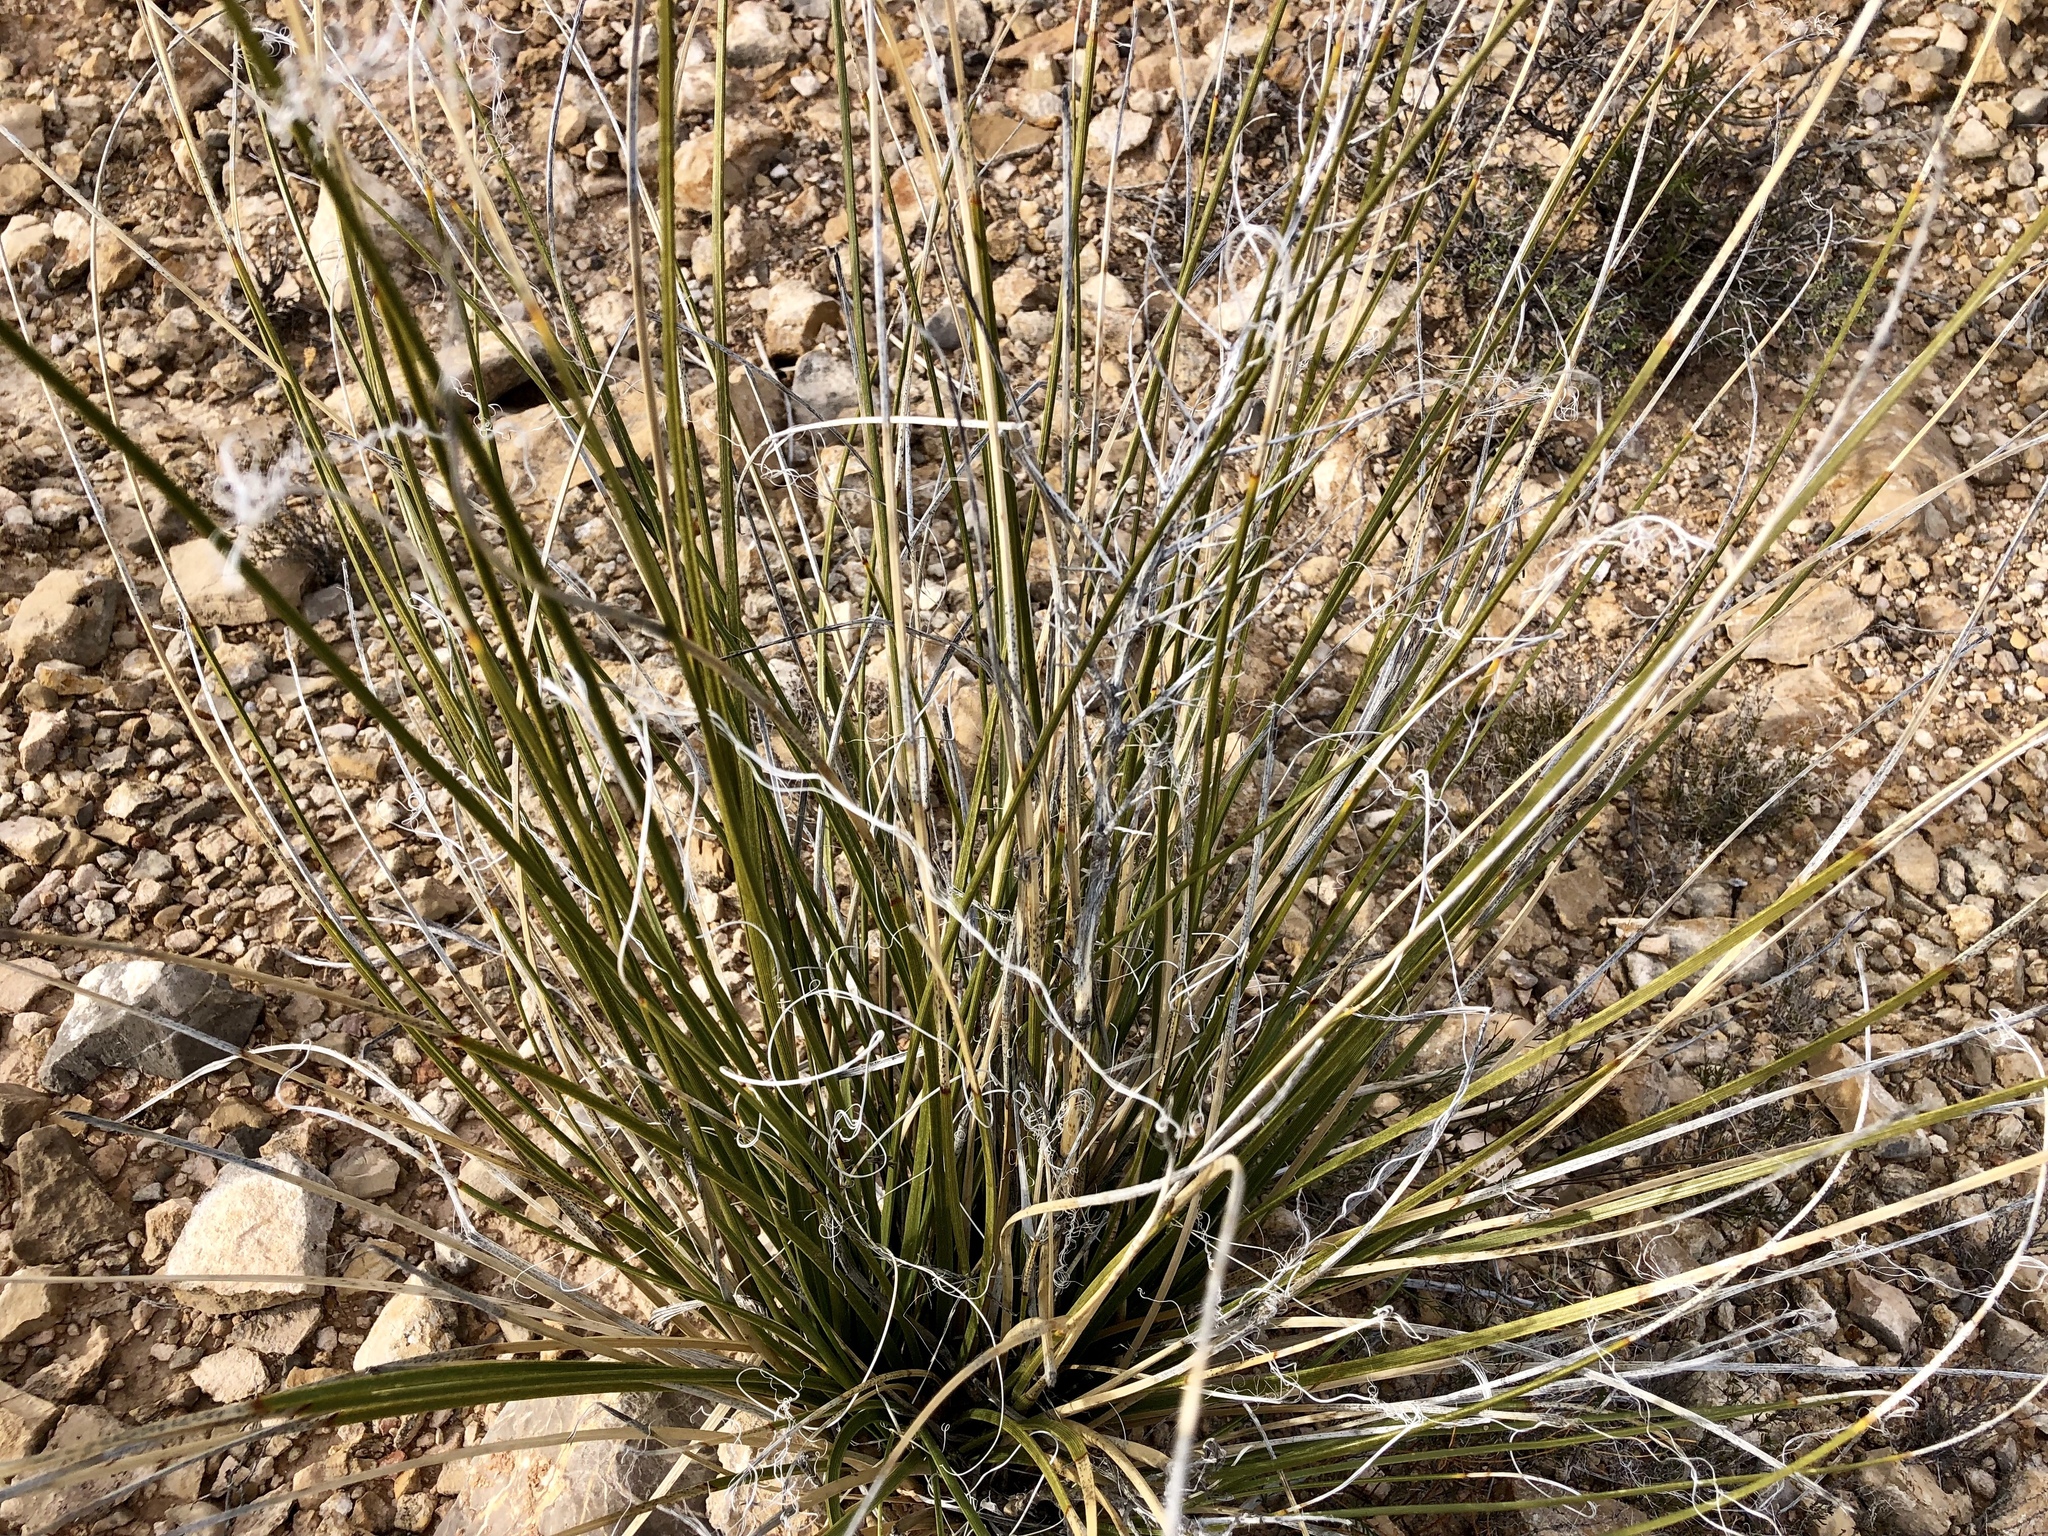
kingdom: Plantae
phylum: Tracheophyta
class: Liliopsida
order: Asparagales
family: Asparagaceae
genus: Nolina
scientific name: Nolina texana
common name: Texas sacahuiste
